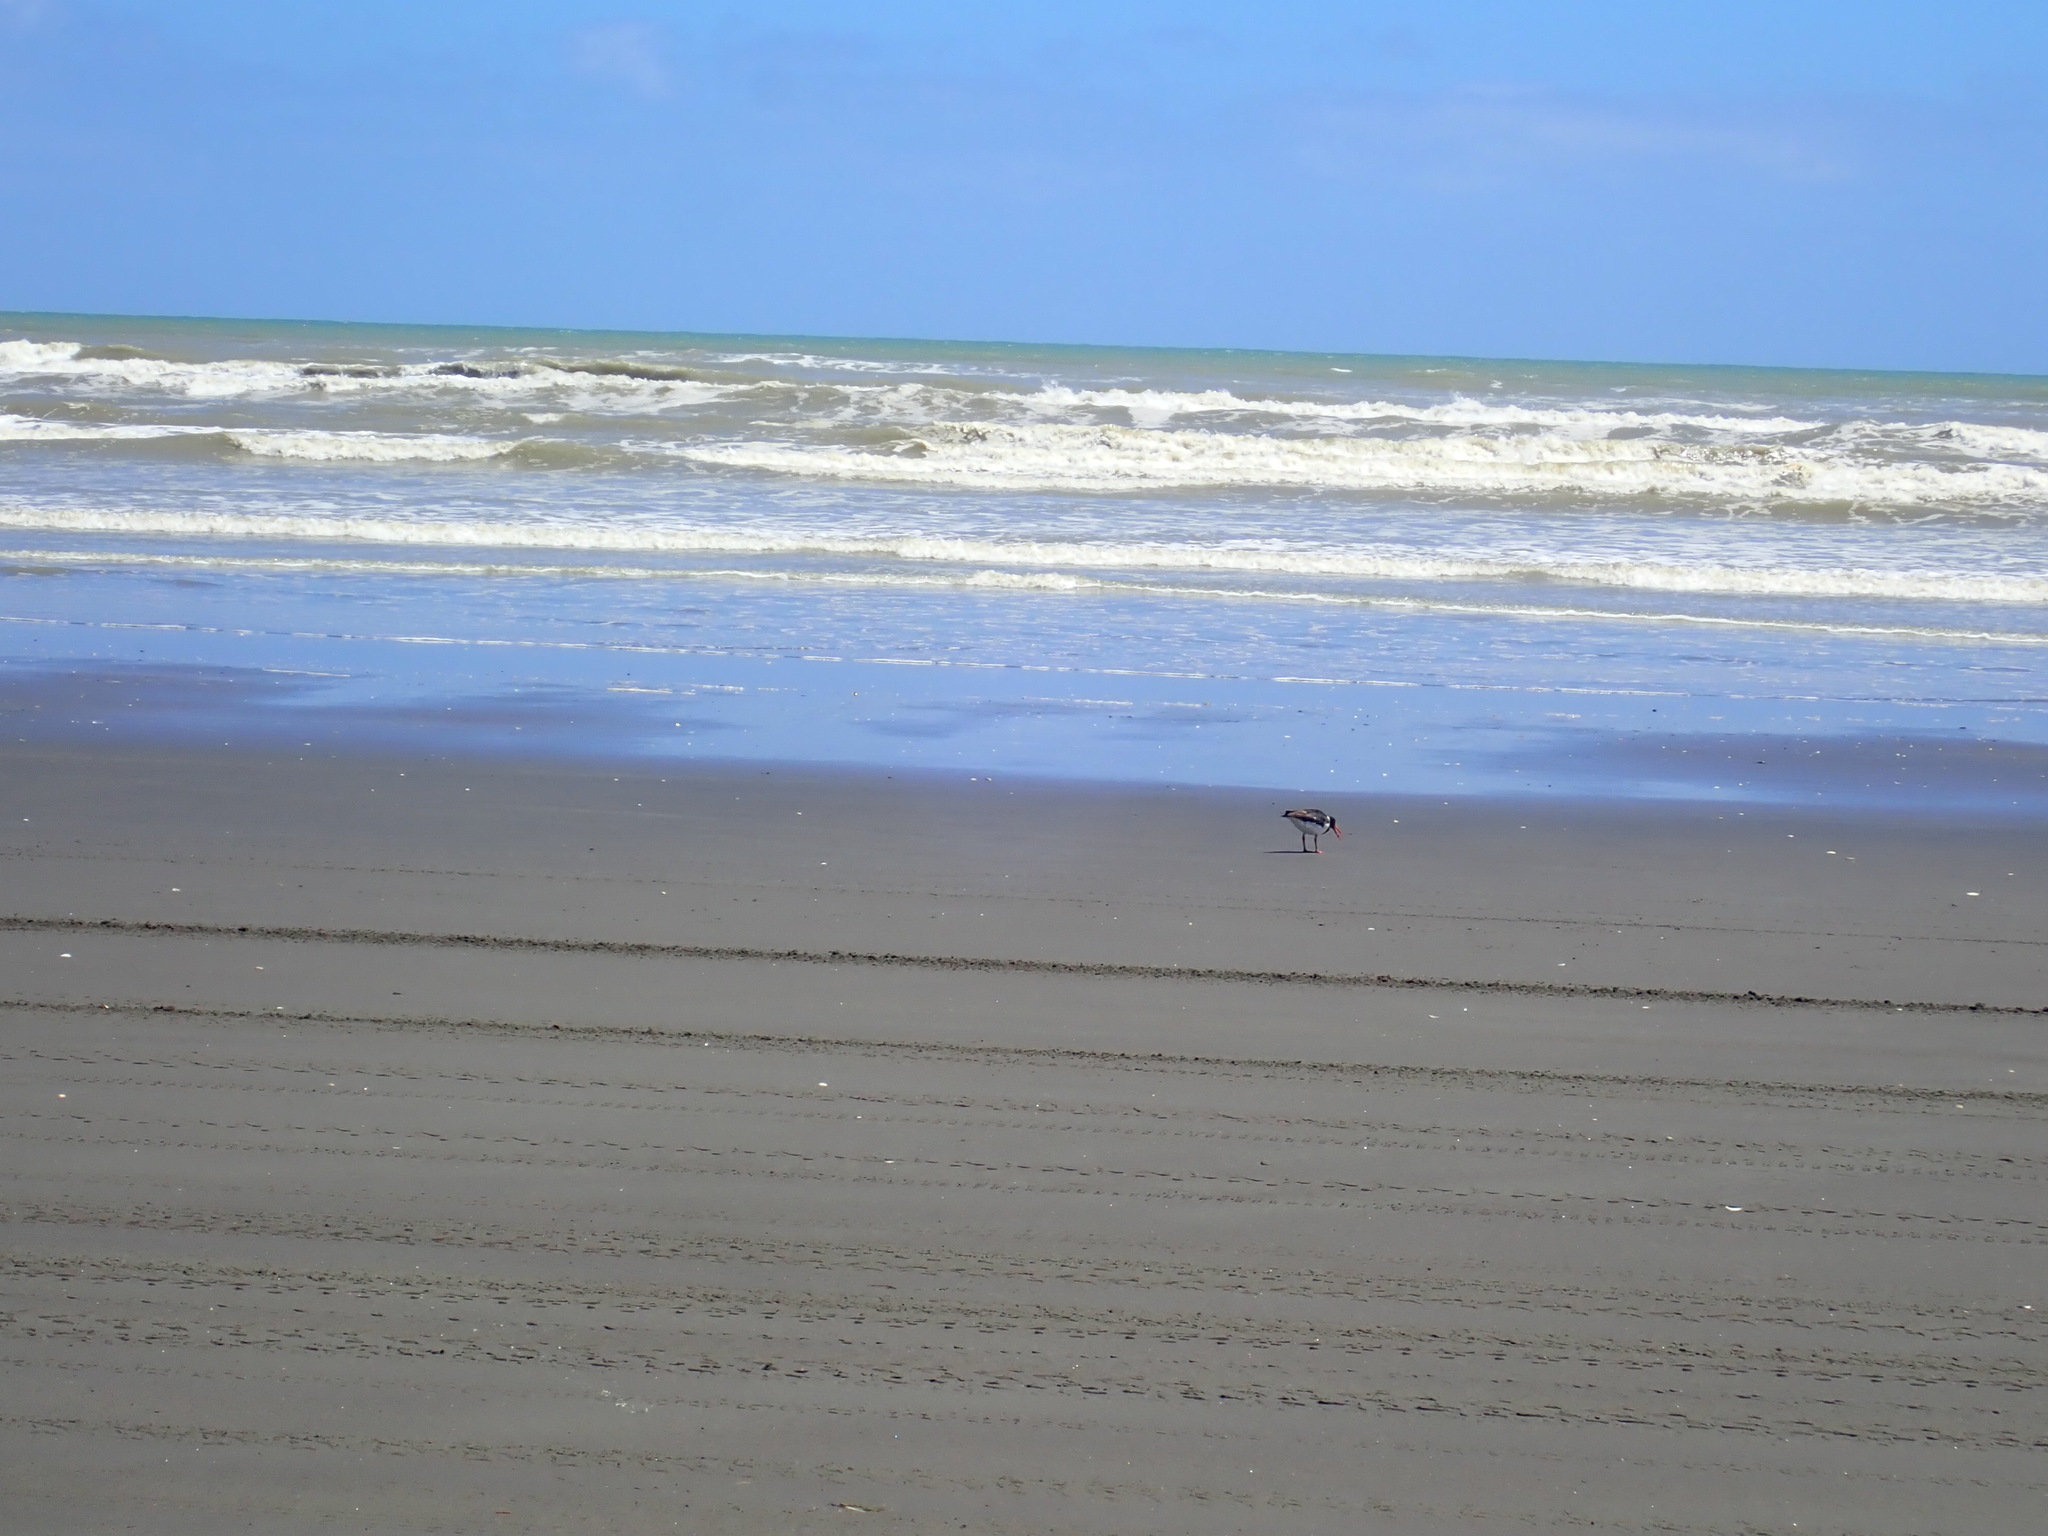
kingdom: Animalia
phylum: Chordata
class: Aves
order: Charadriiformes
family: Haematopodidae
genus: Haematopus
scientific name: Haematopus finschi
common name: South island oystercatcher
